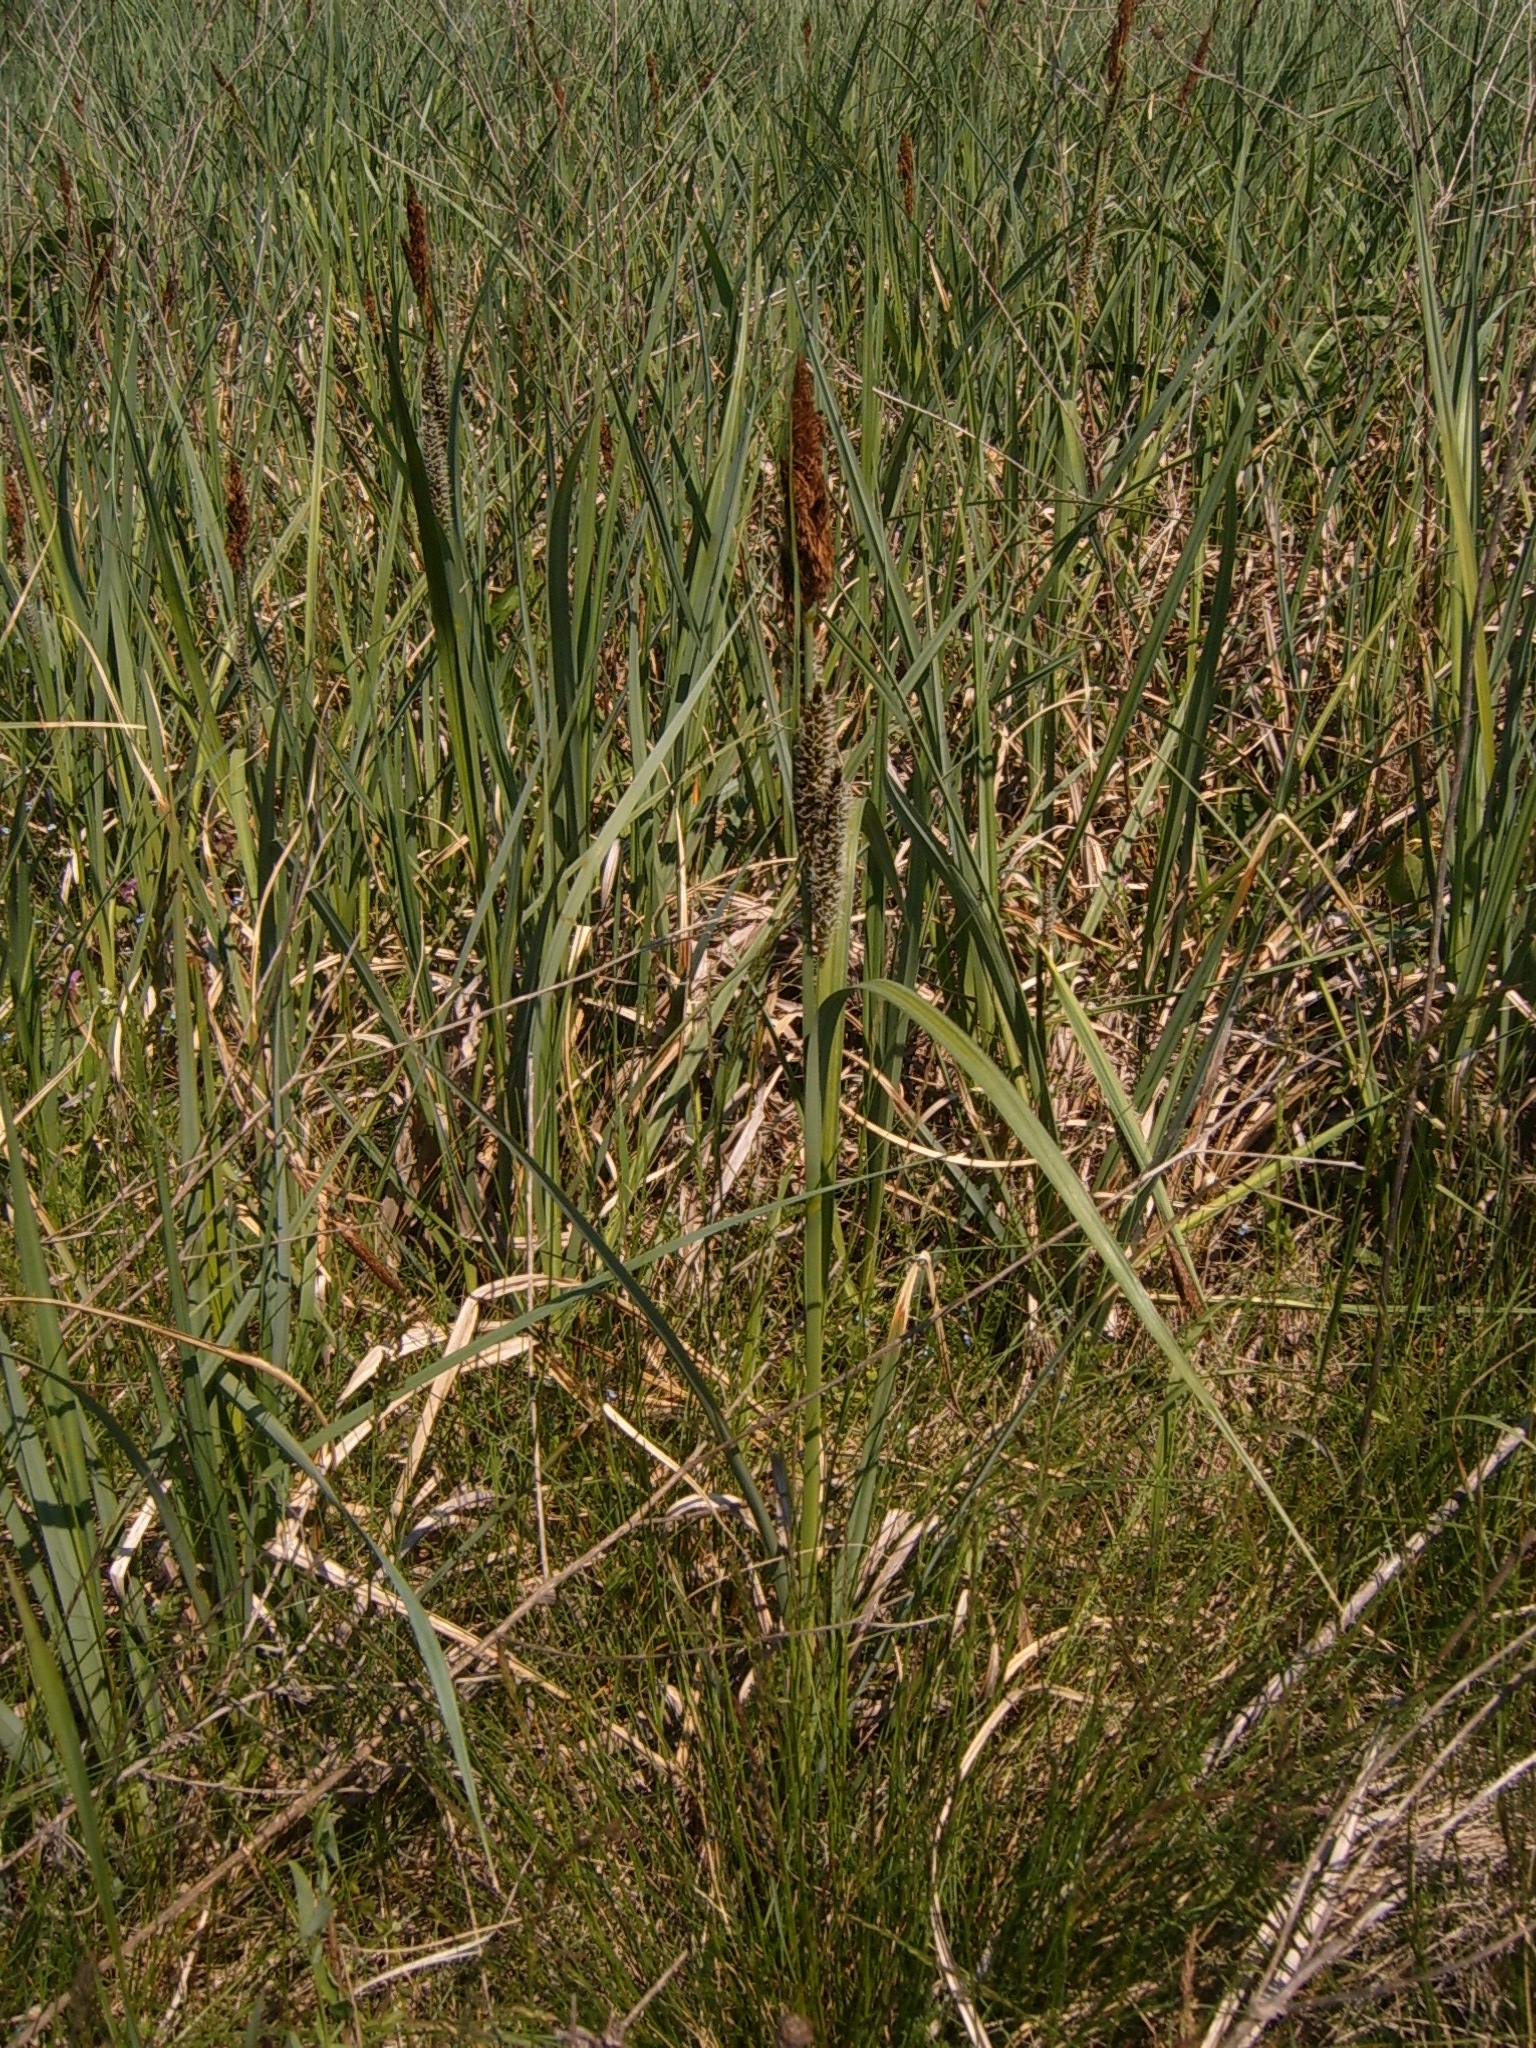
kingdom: Plantae
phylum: Tracheophyta
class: Liliopsida
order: Poales
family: Cyperaceae
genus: Carex
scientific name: Carex acuta
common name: Slender tufted-sedge
